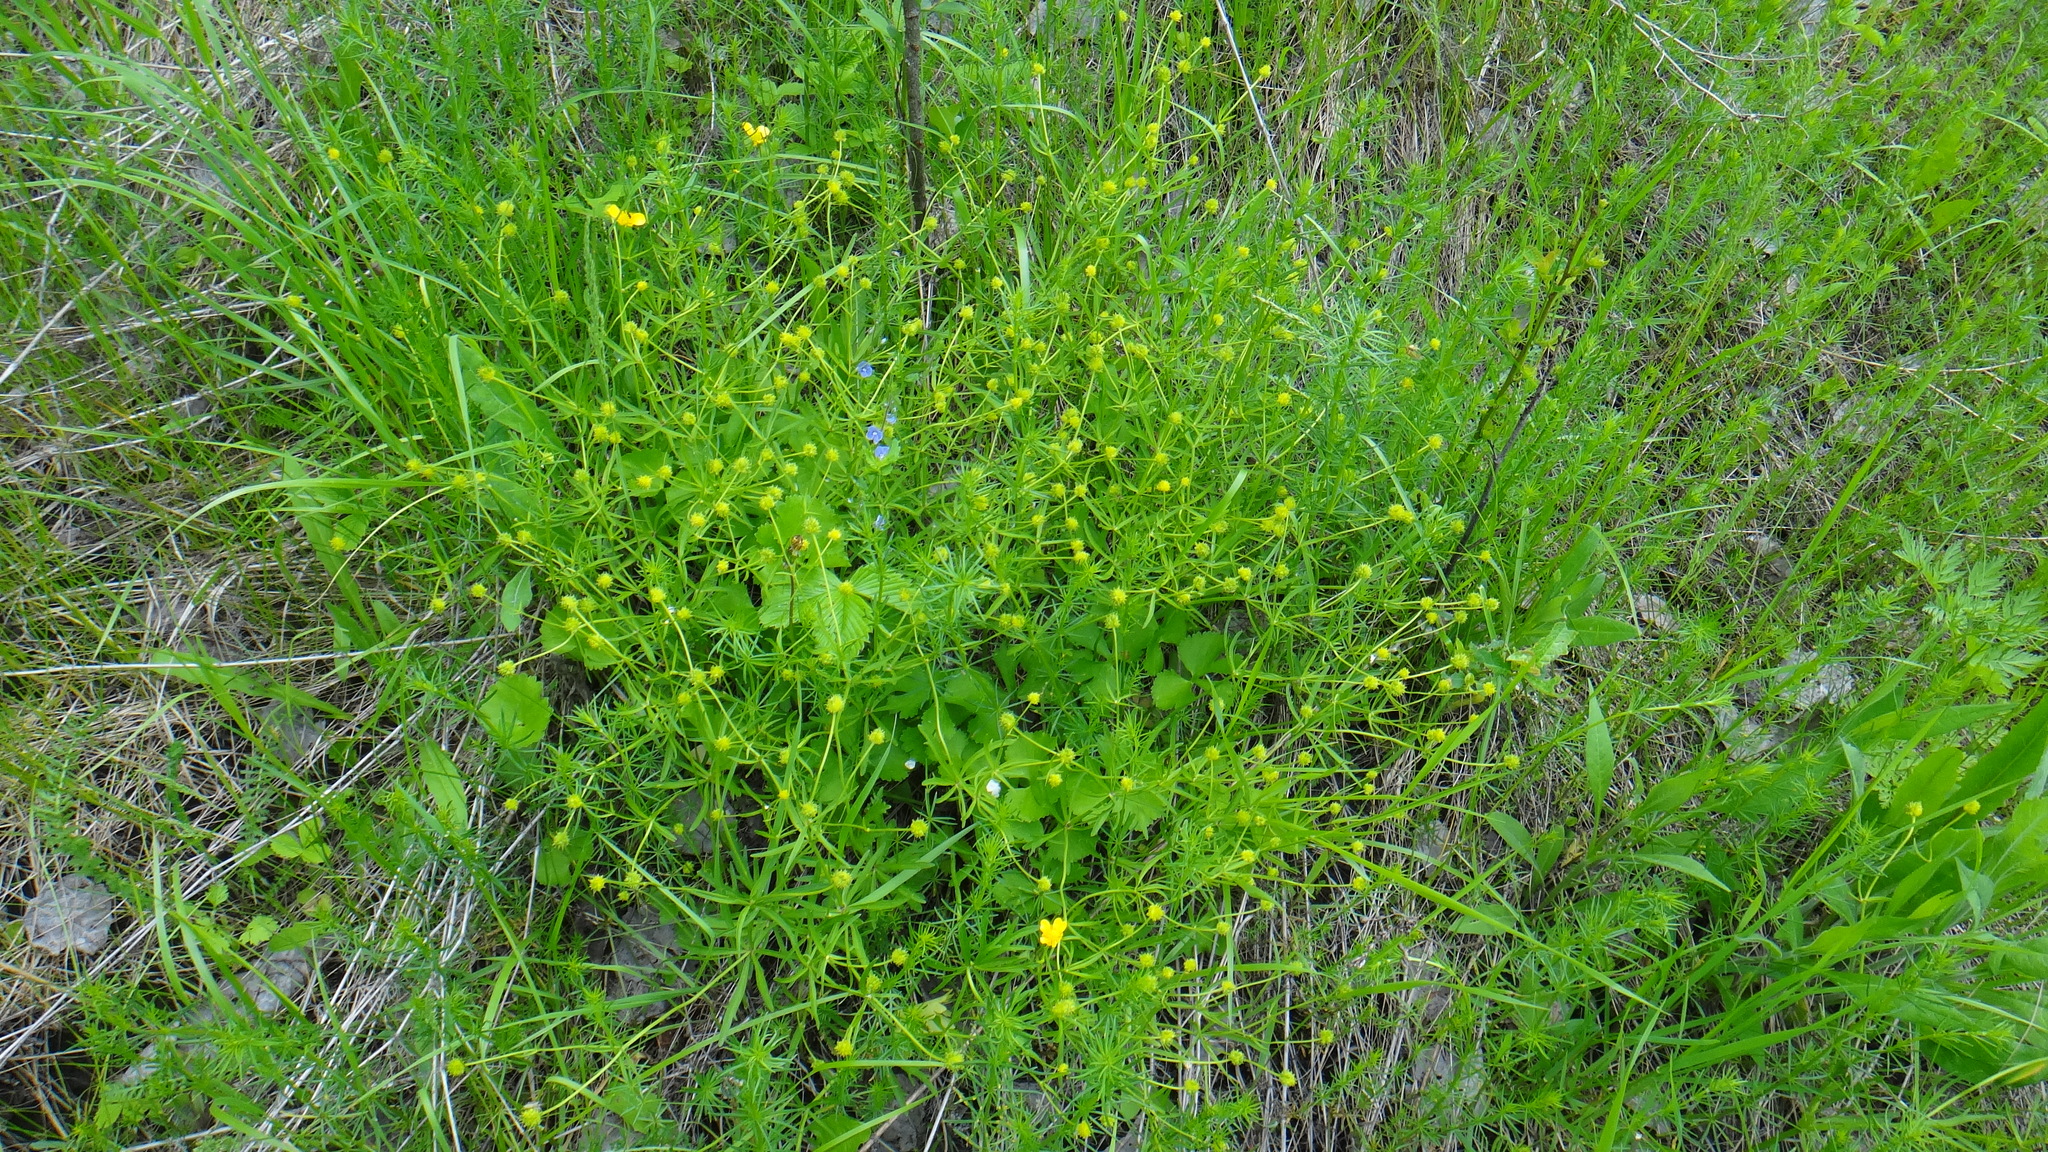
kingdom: Plantae
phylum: Tracheophyta
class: Magnoliopsida
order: Ranunculales
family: Ranunculaceae
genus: Ranunculus
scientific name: Ranunculus auricomus
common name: Goldilocks buttercup
